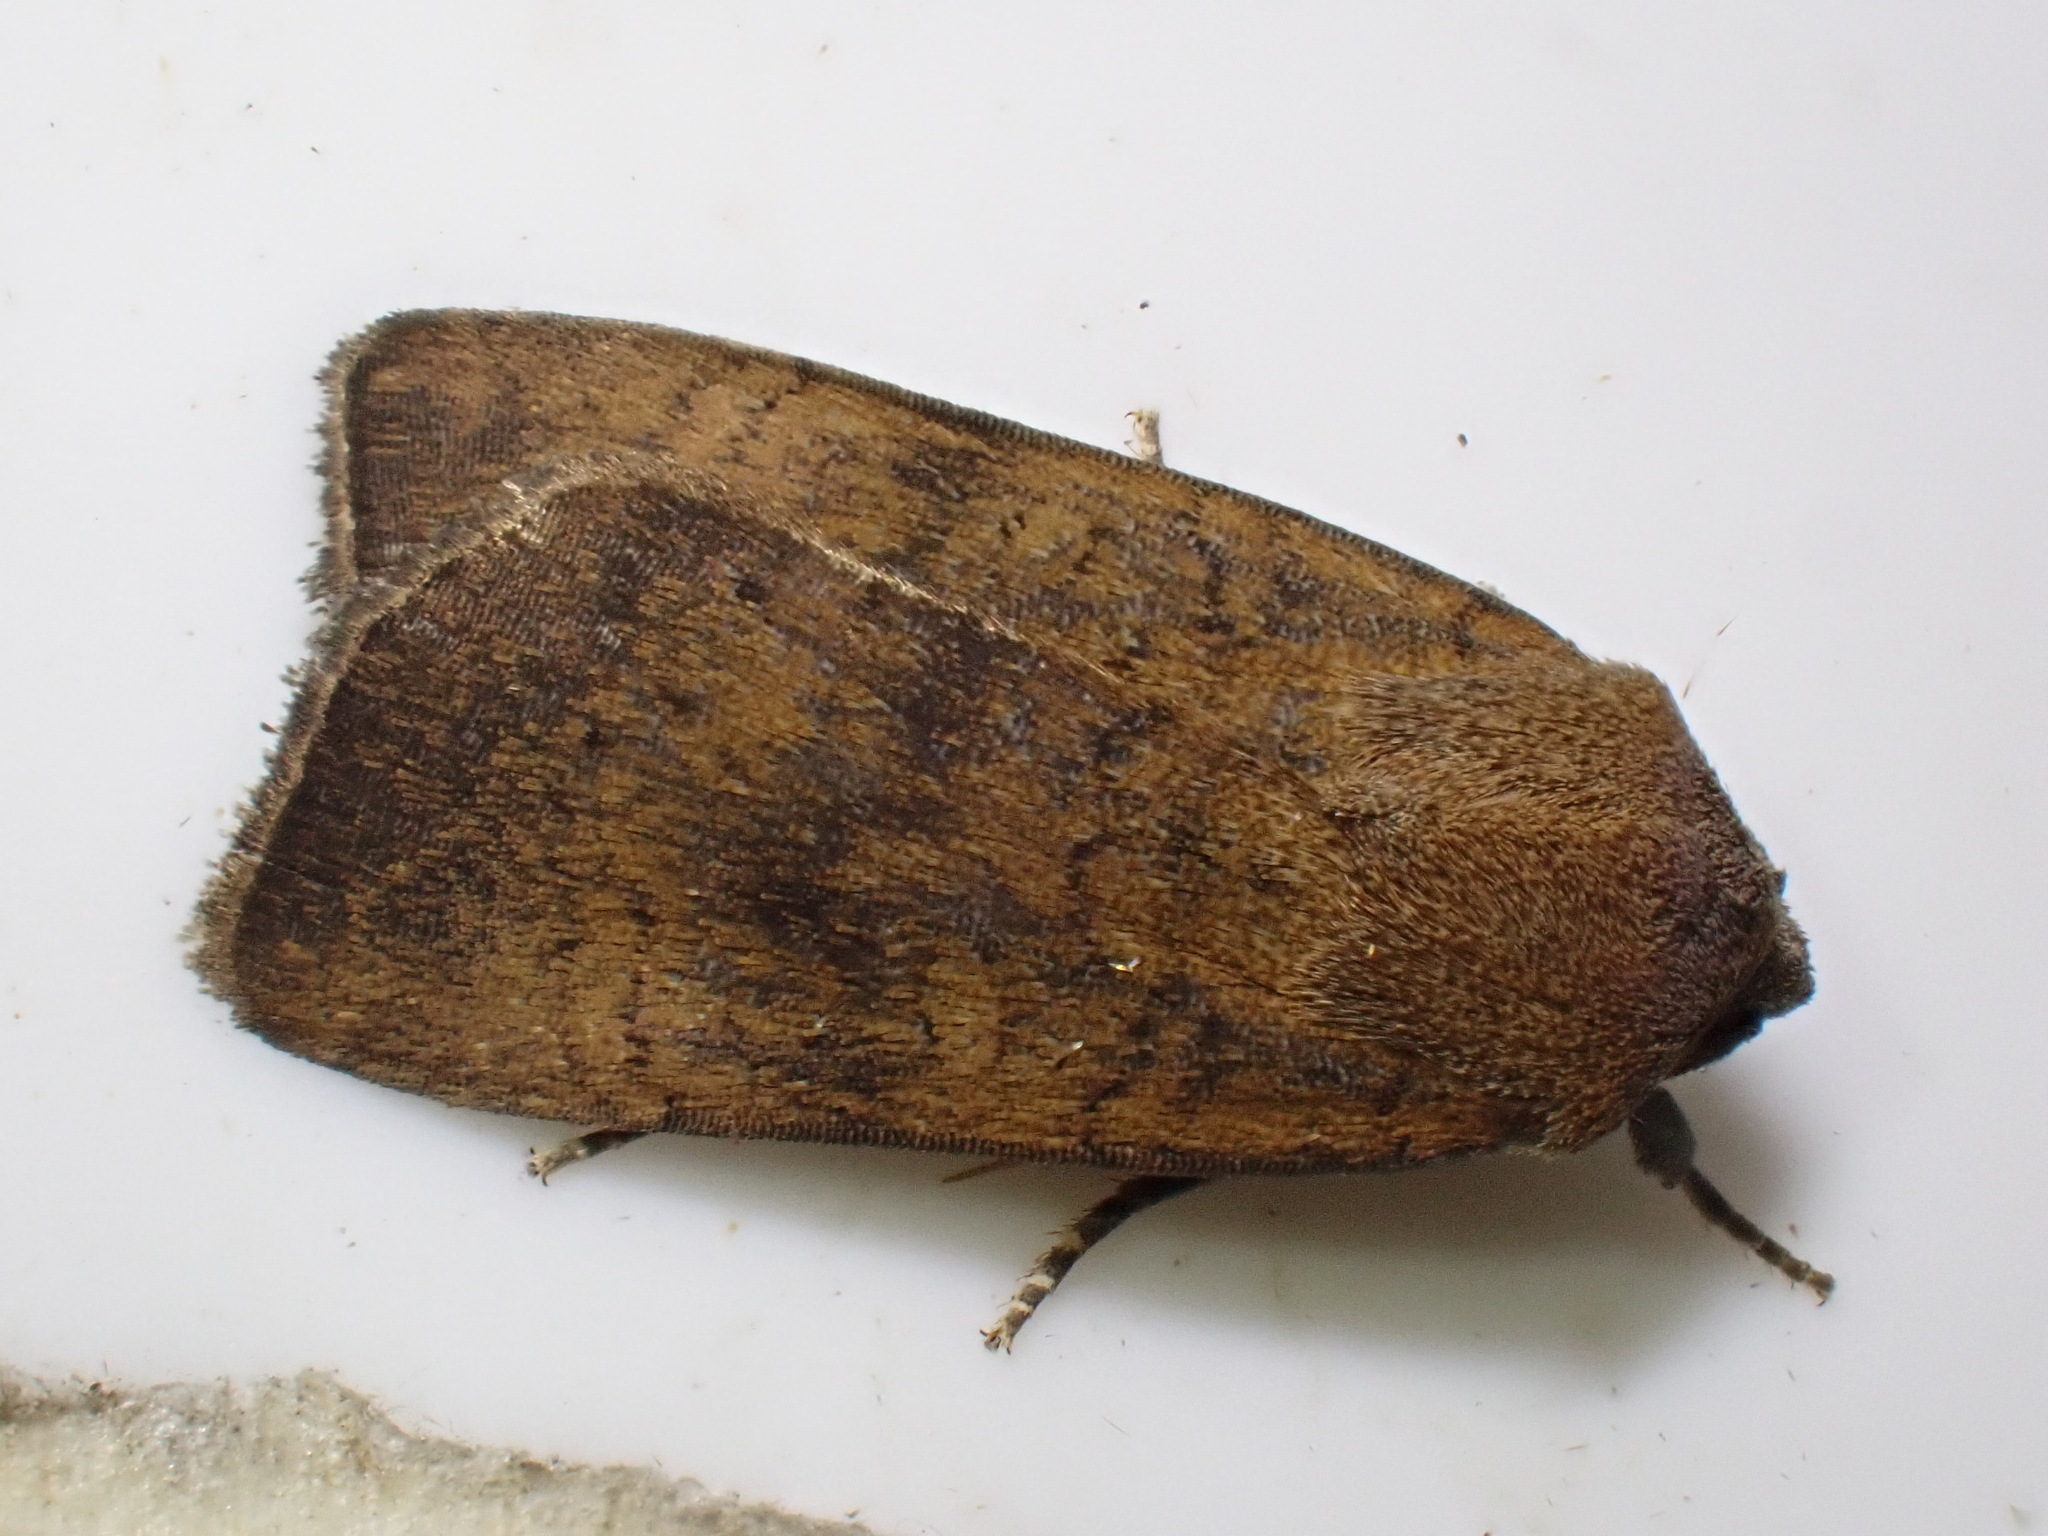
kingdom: Animalia
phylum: Arthropoda
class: Insecta
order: Lepidoptera
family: Noctuidae
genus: Noctua
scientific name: Noctua interjecta
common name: Least yellow underwing
